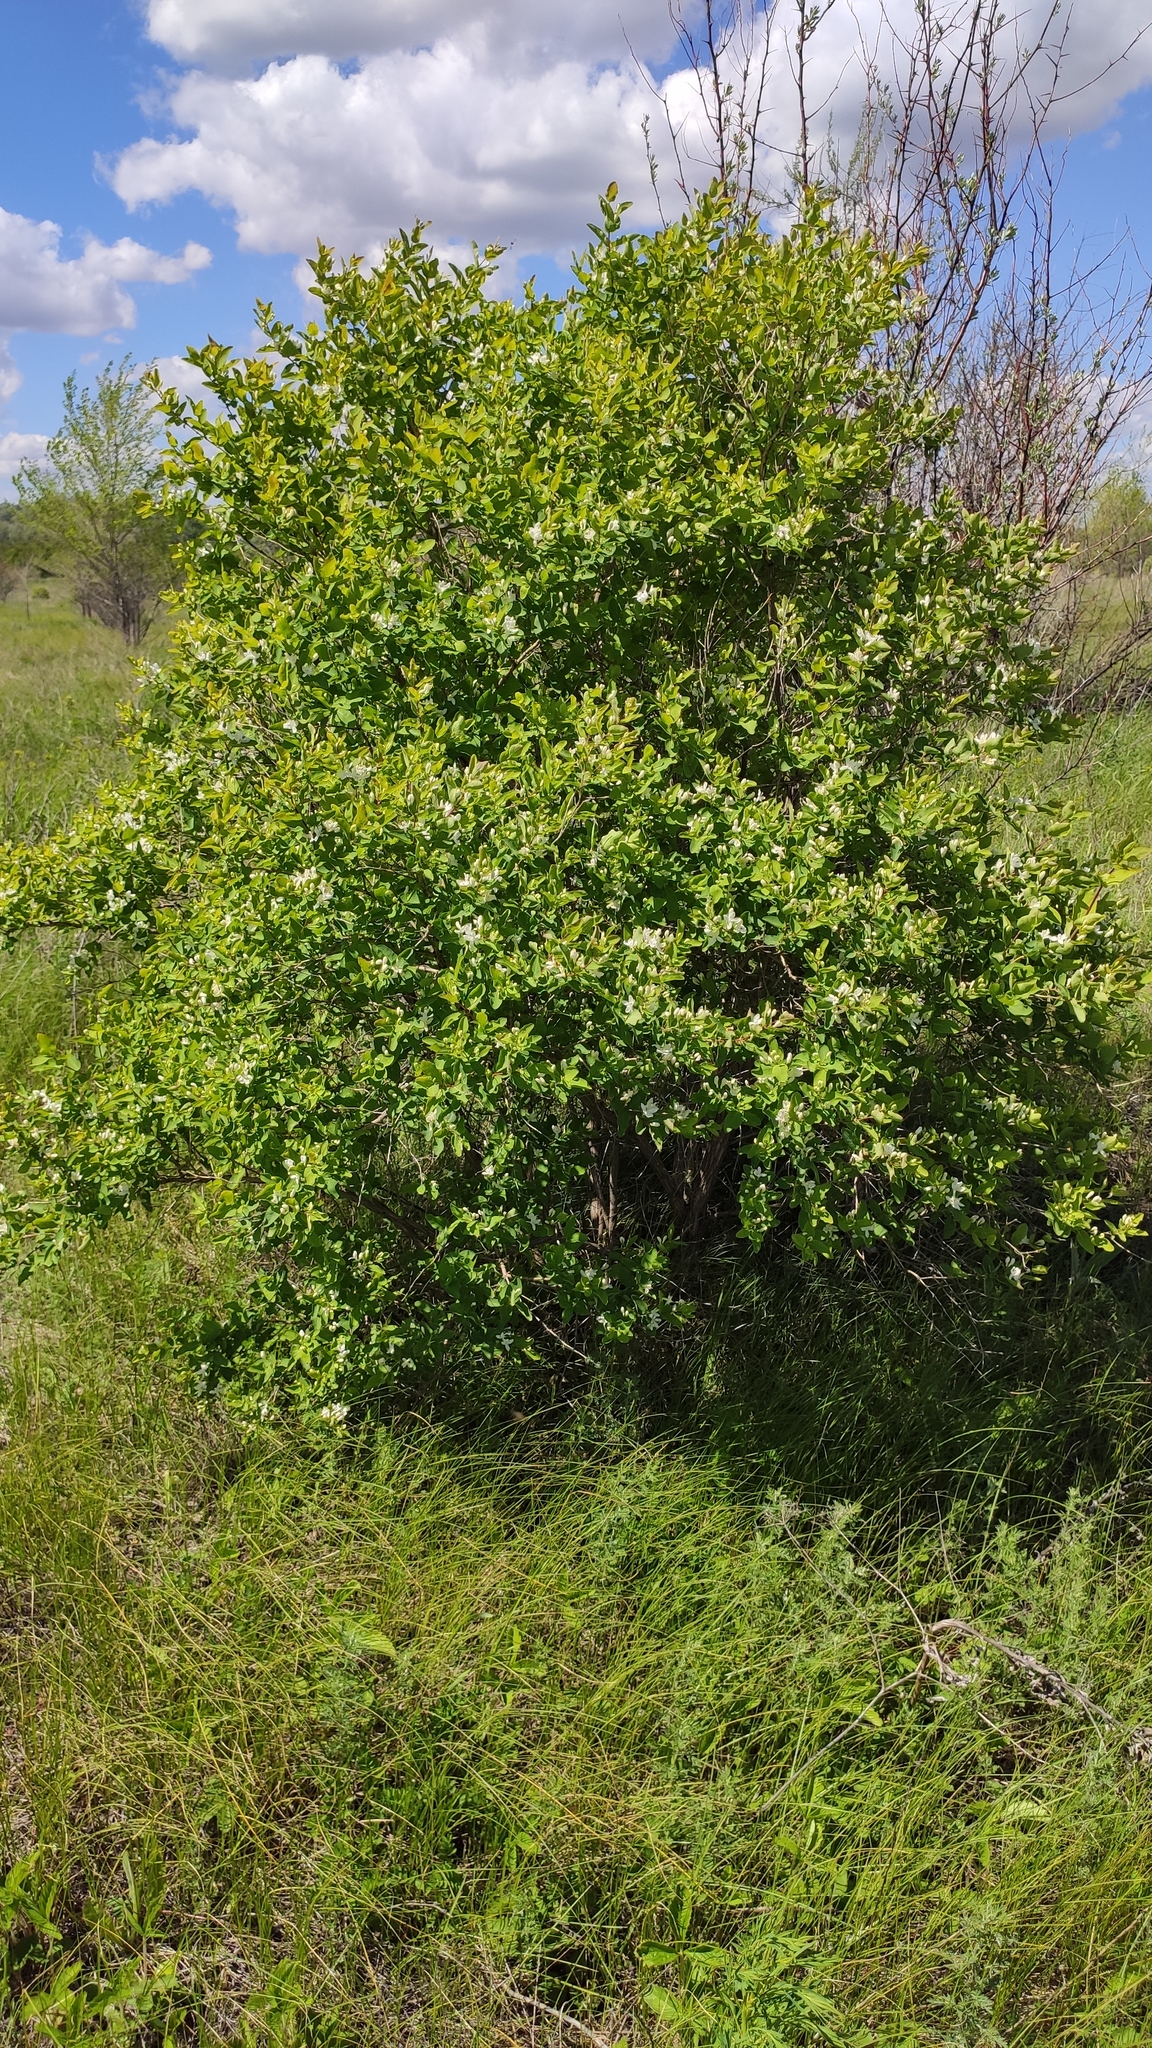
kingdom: Plantae
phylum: Tracheophyta
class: Magnoliopsida
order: Dipsacales
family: Caprifoliaceae
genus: Lonicera
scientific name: Lonicera tatarica
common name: Tatarian honeysuckle
